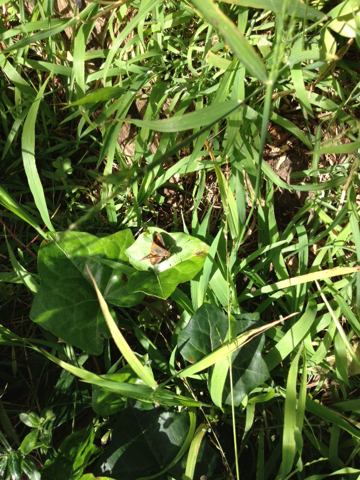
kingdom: Animalia
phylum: Arthropoda
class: Insecta
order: Lepidoptera
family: Hesperiidae
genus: Lon
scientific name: Lon melane
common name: Umber skipper
